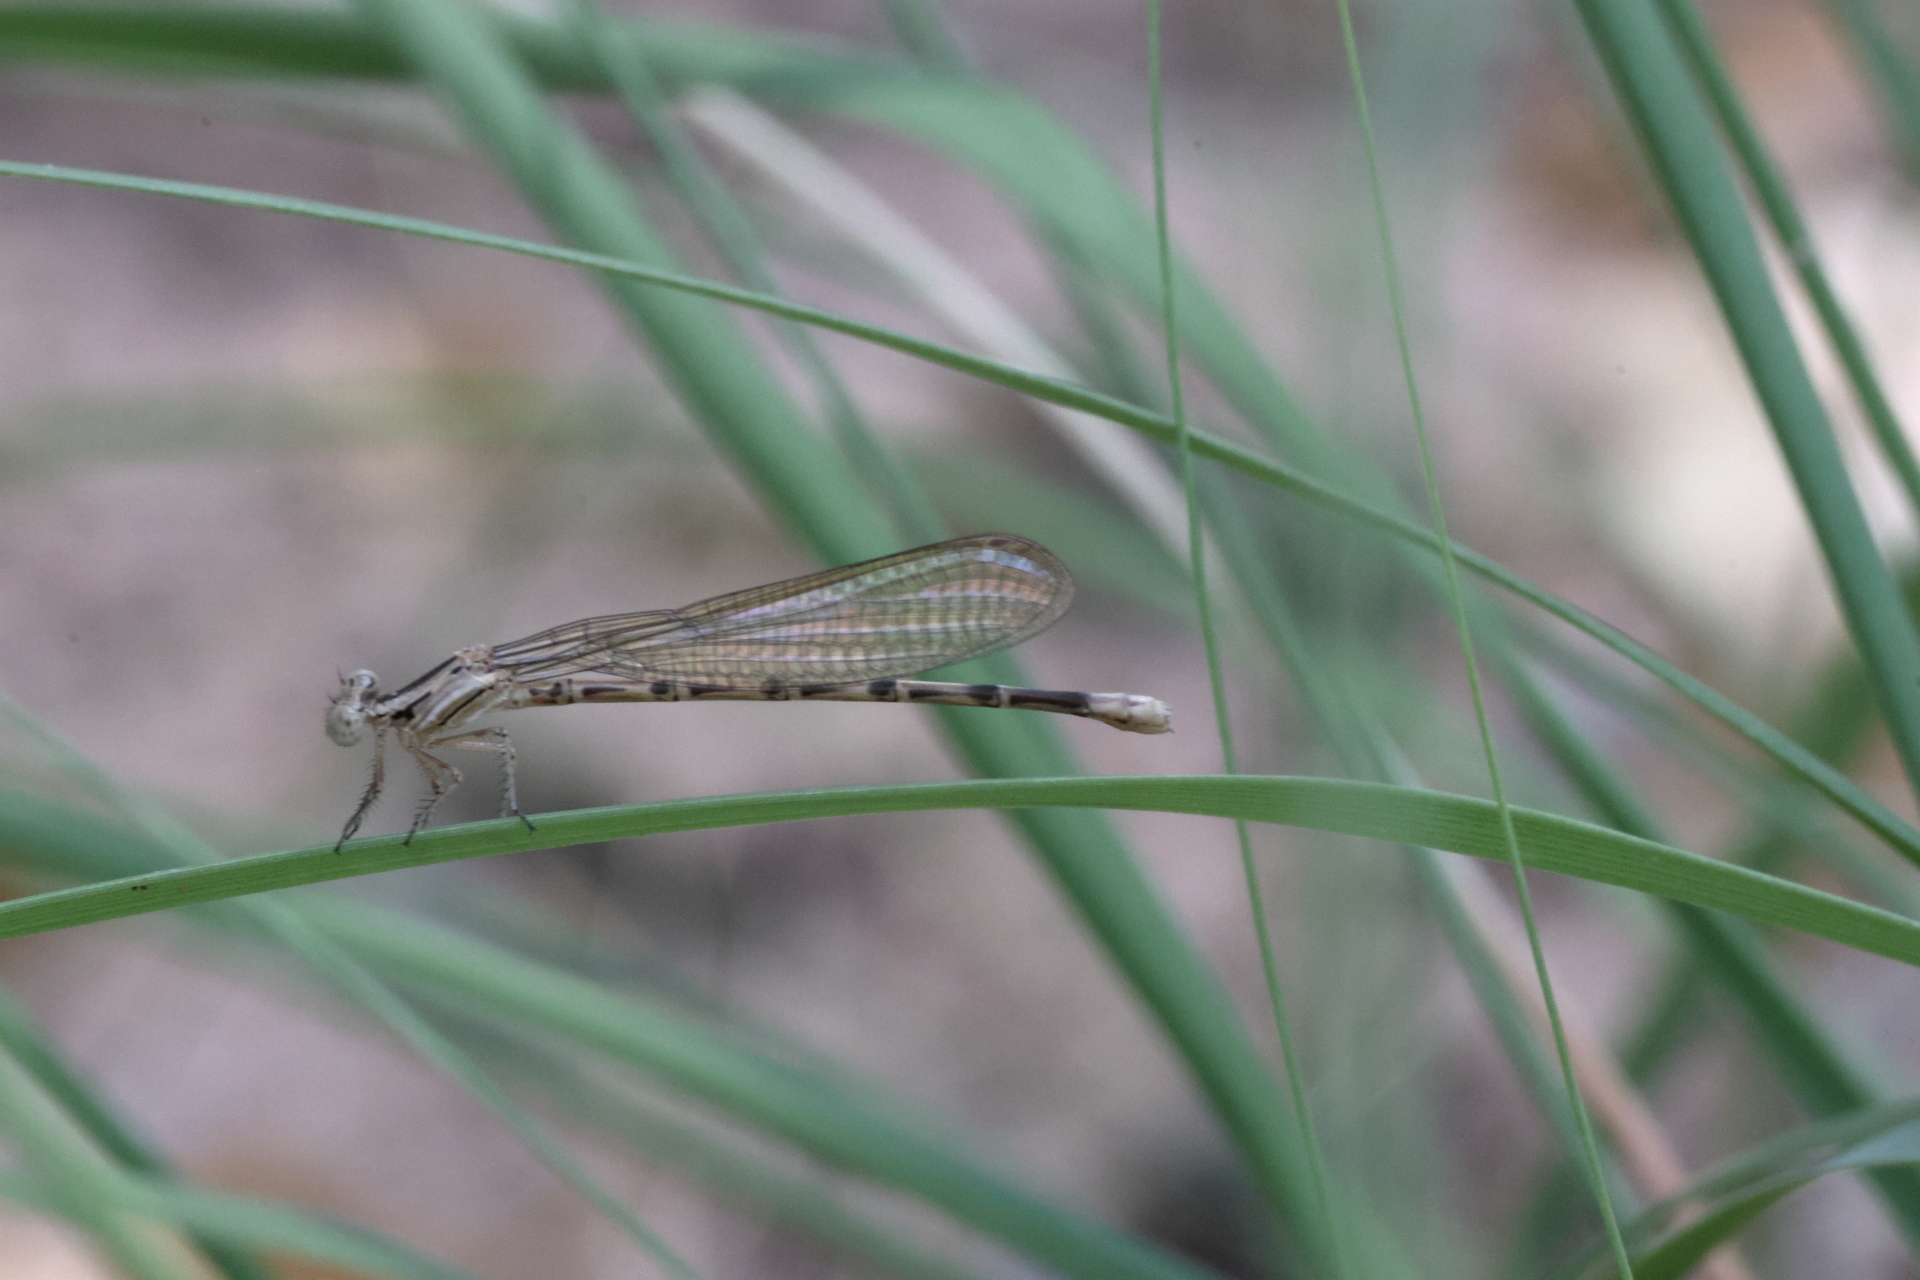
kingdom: Animalia
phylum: Arthropoda
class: Insecta
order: Odonata
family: Coenagrionidae
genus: Argia
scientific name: Argia extranea
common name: Spine-tipped dancer
